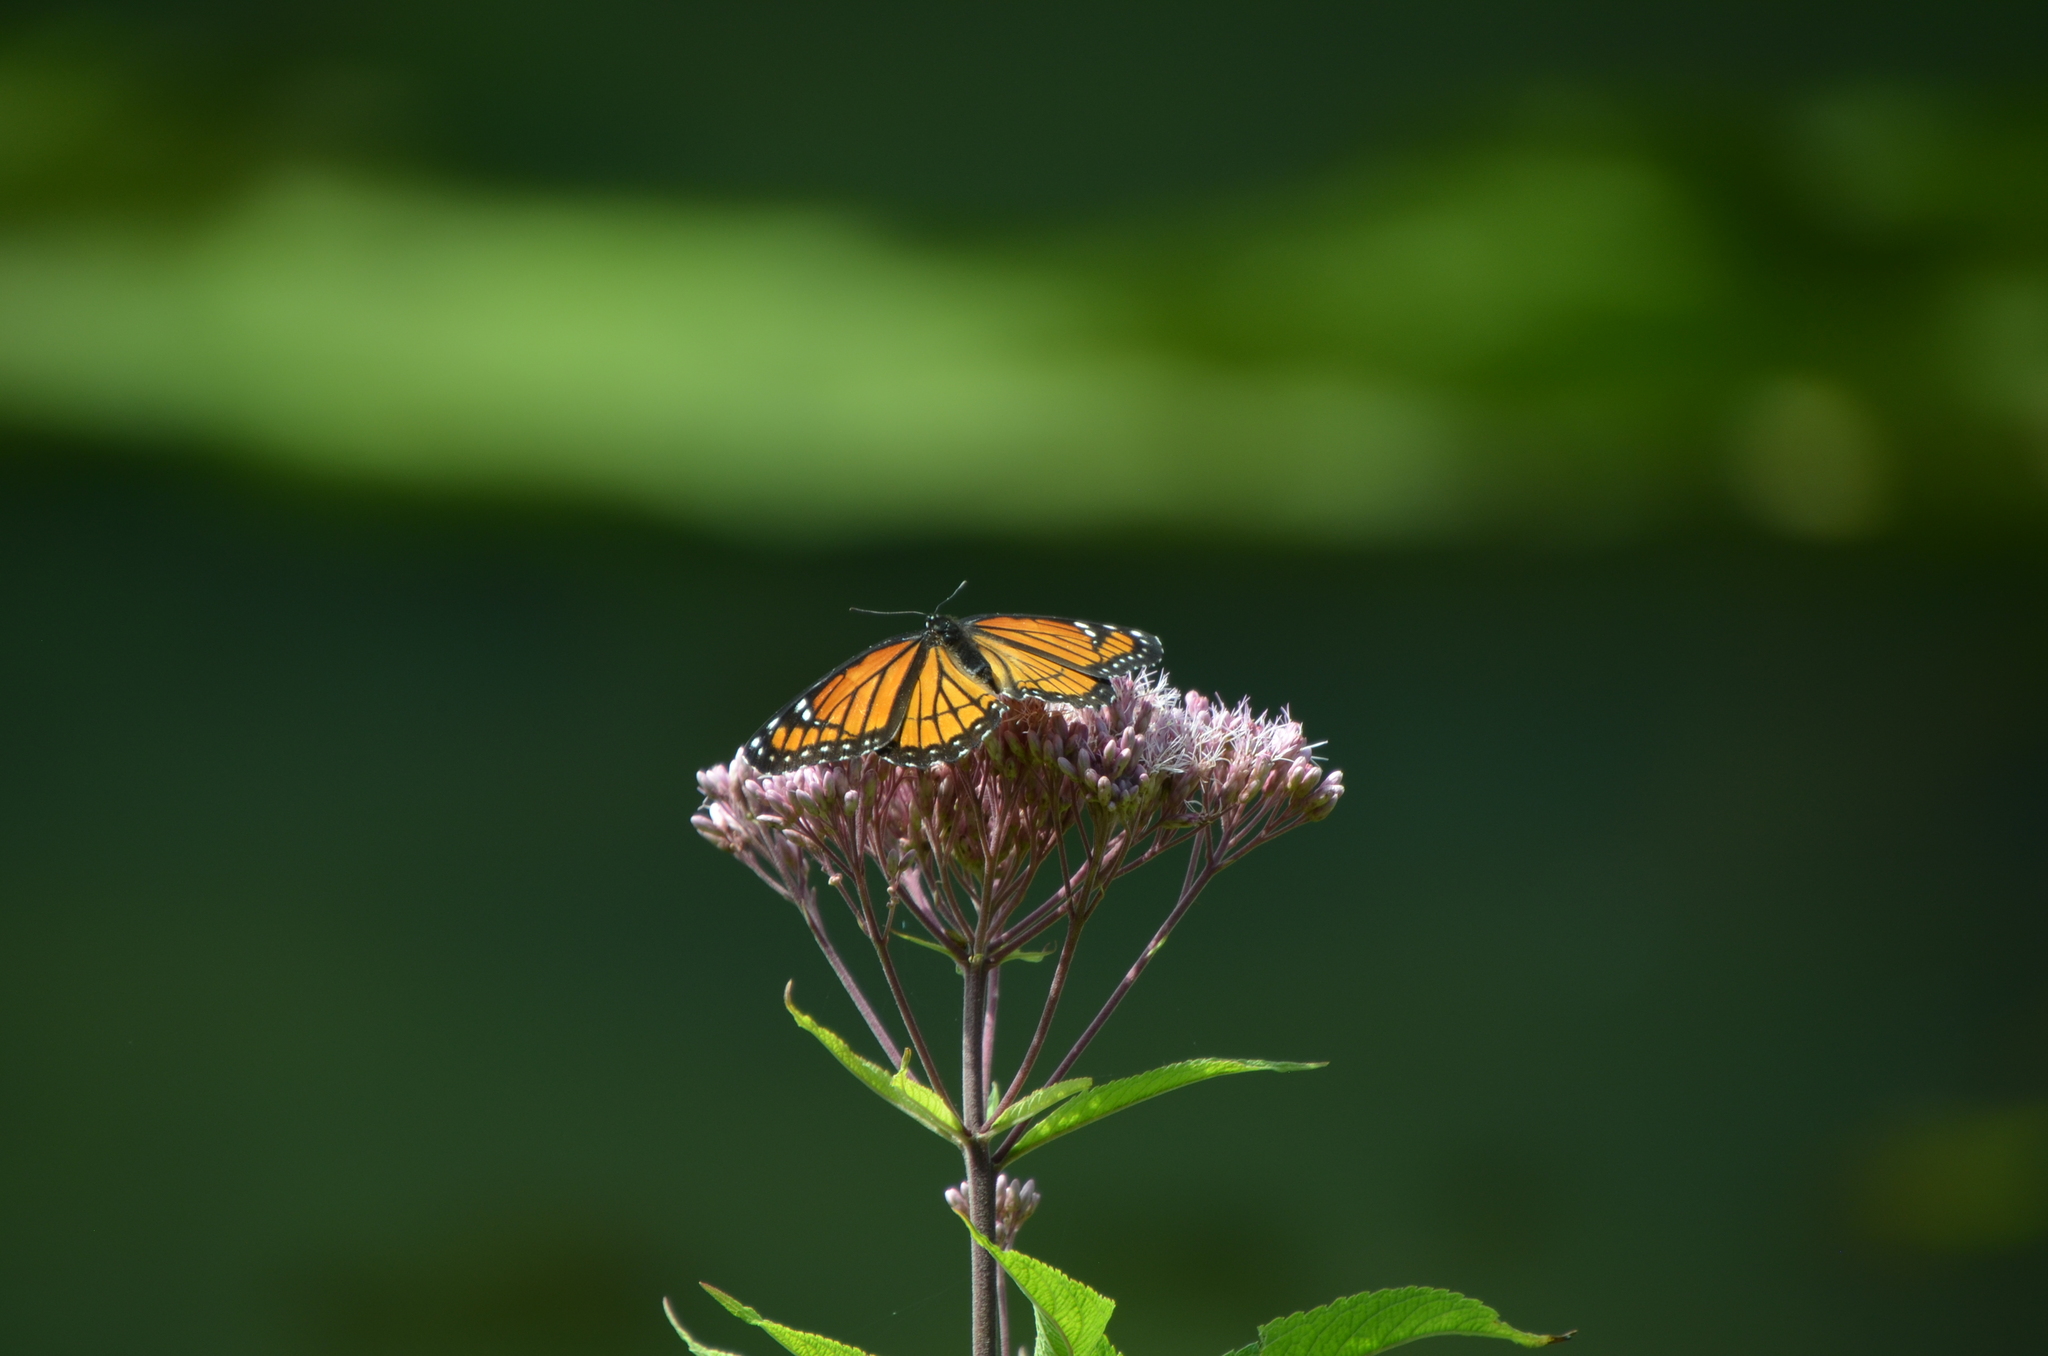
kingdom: Animalia
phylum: Arthropoda
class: Insecta
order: Lepidoptera
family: Nymphalidae
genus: Limenitis
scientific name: Limenitis archippus
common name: Viceroy
